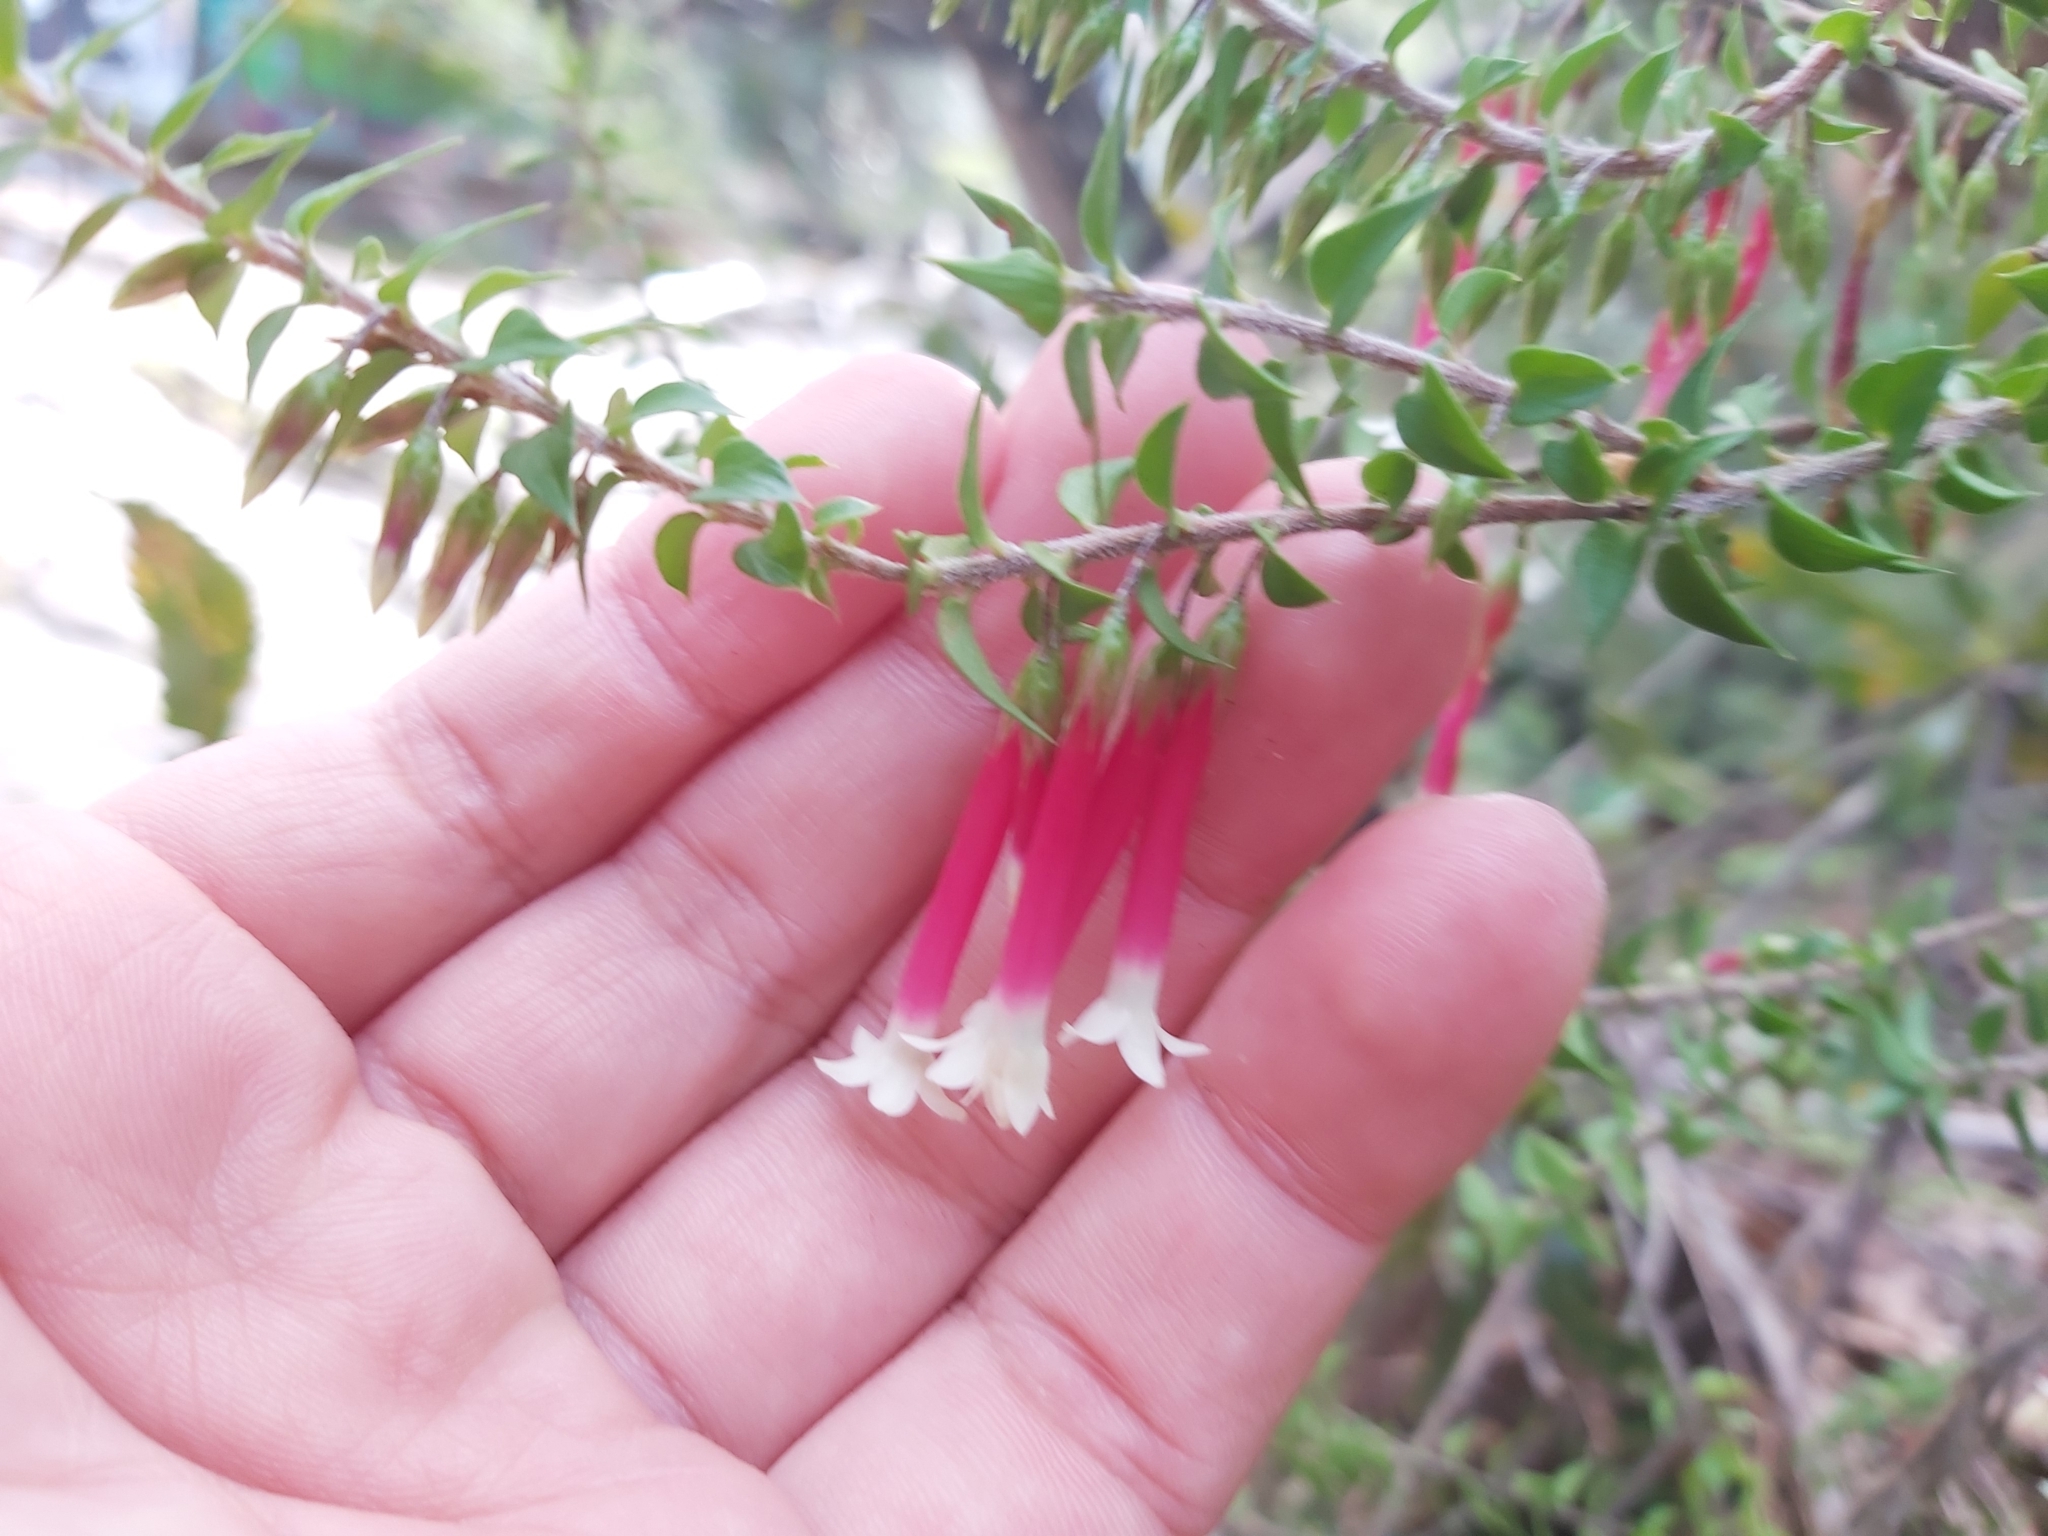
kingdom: Plantae
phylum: Tracheophyta
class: Magnoliopsida
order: Ericales
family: Ericaceae
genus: Epacris
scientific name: Epacris longiflora
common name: Fuchsia-heath
